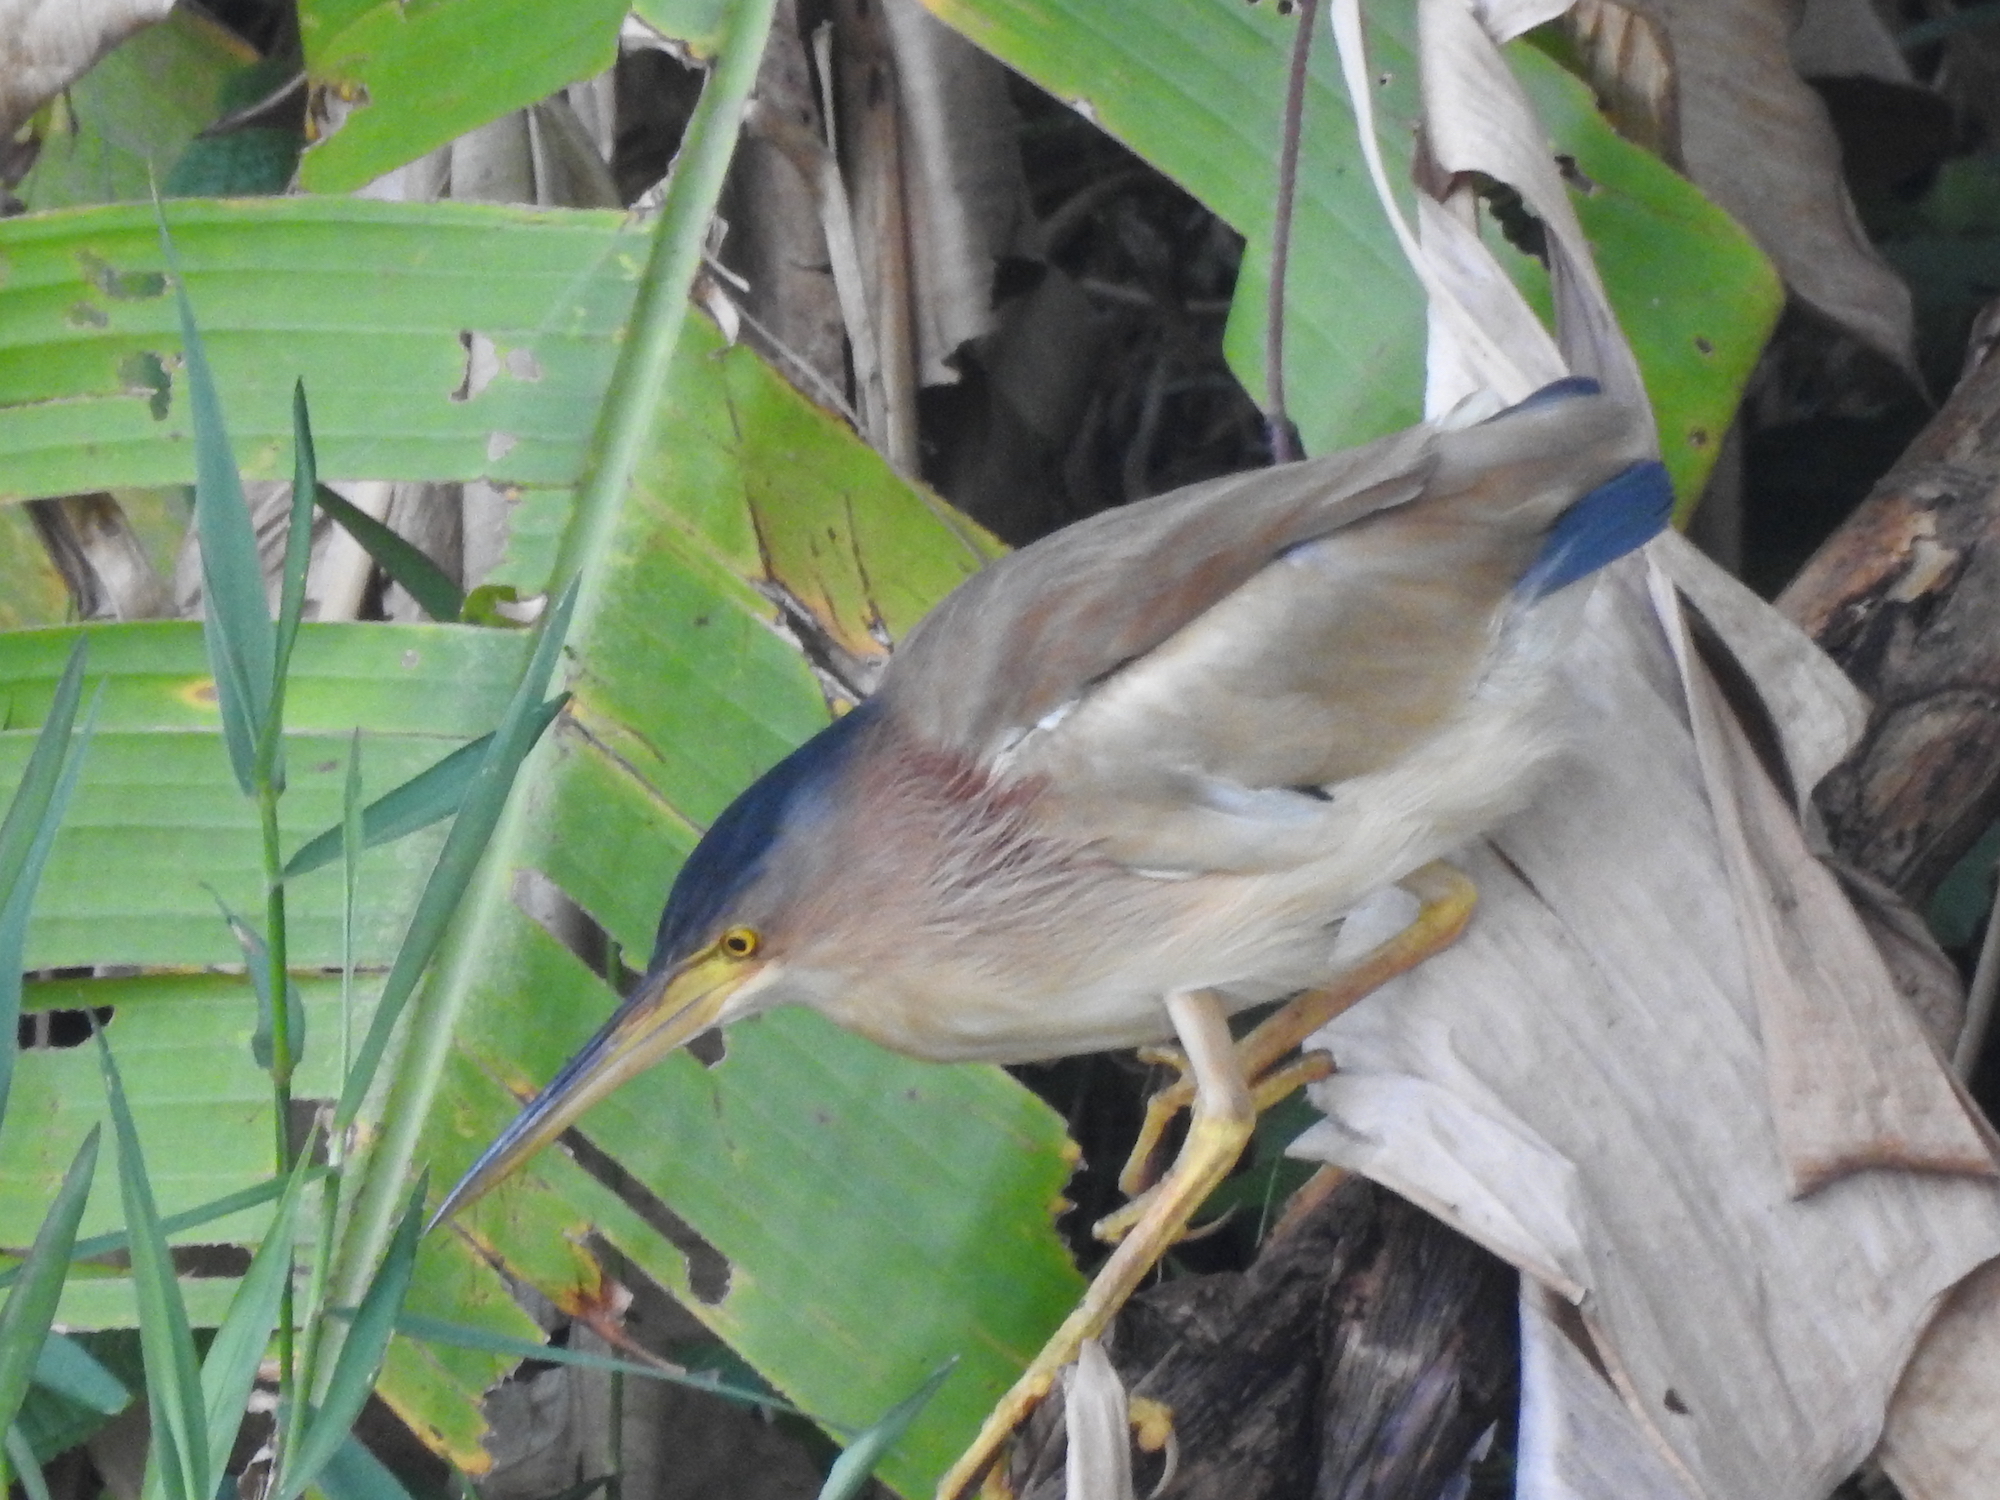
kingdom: Animalia
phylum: Chordata
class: Aves
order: Pelecaniformes
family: Ardeidae
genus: Ixobrychus
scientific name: Ixobrychus sinensis
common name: Yellow bittern
